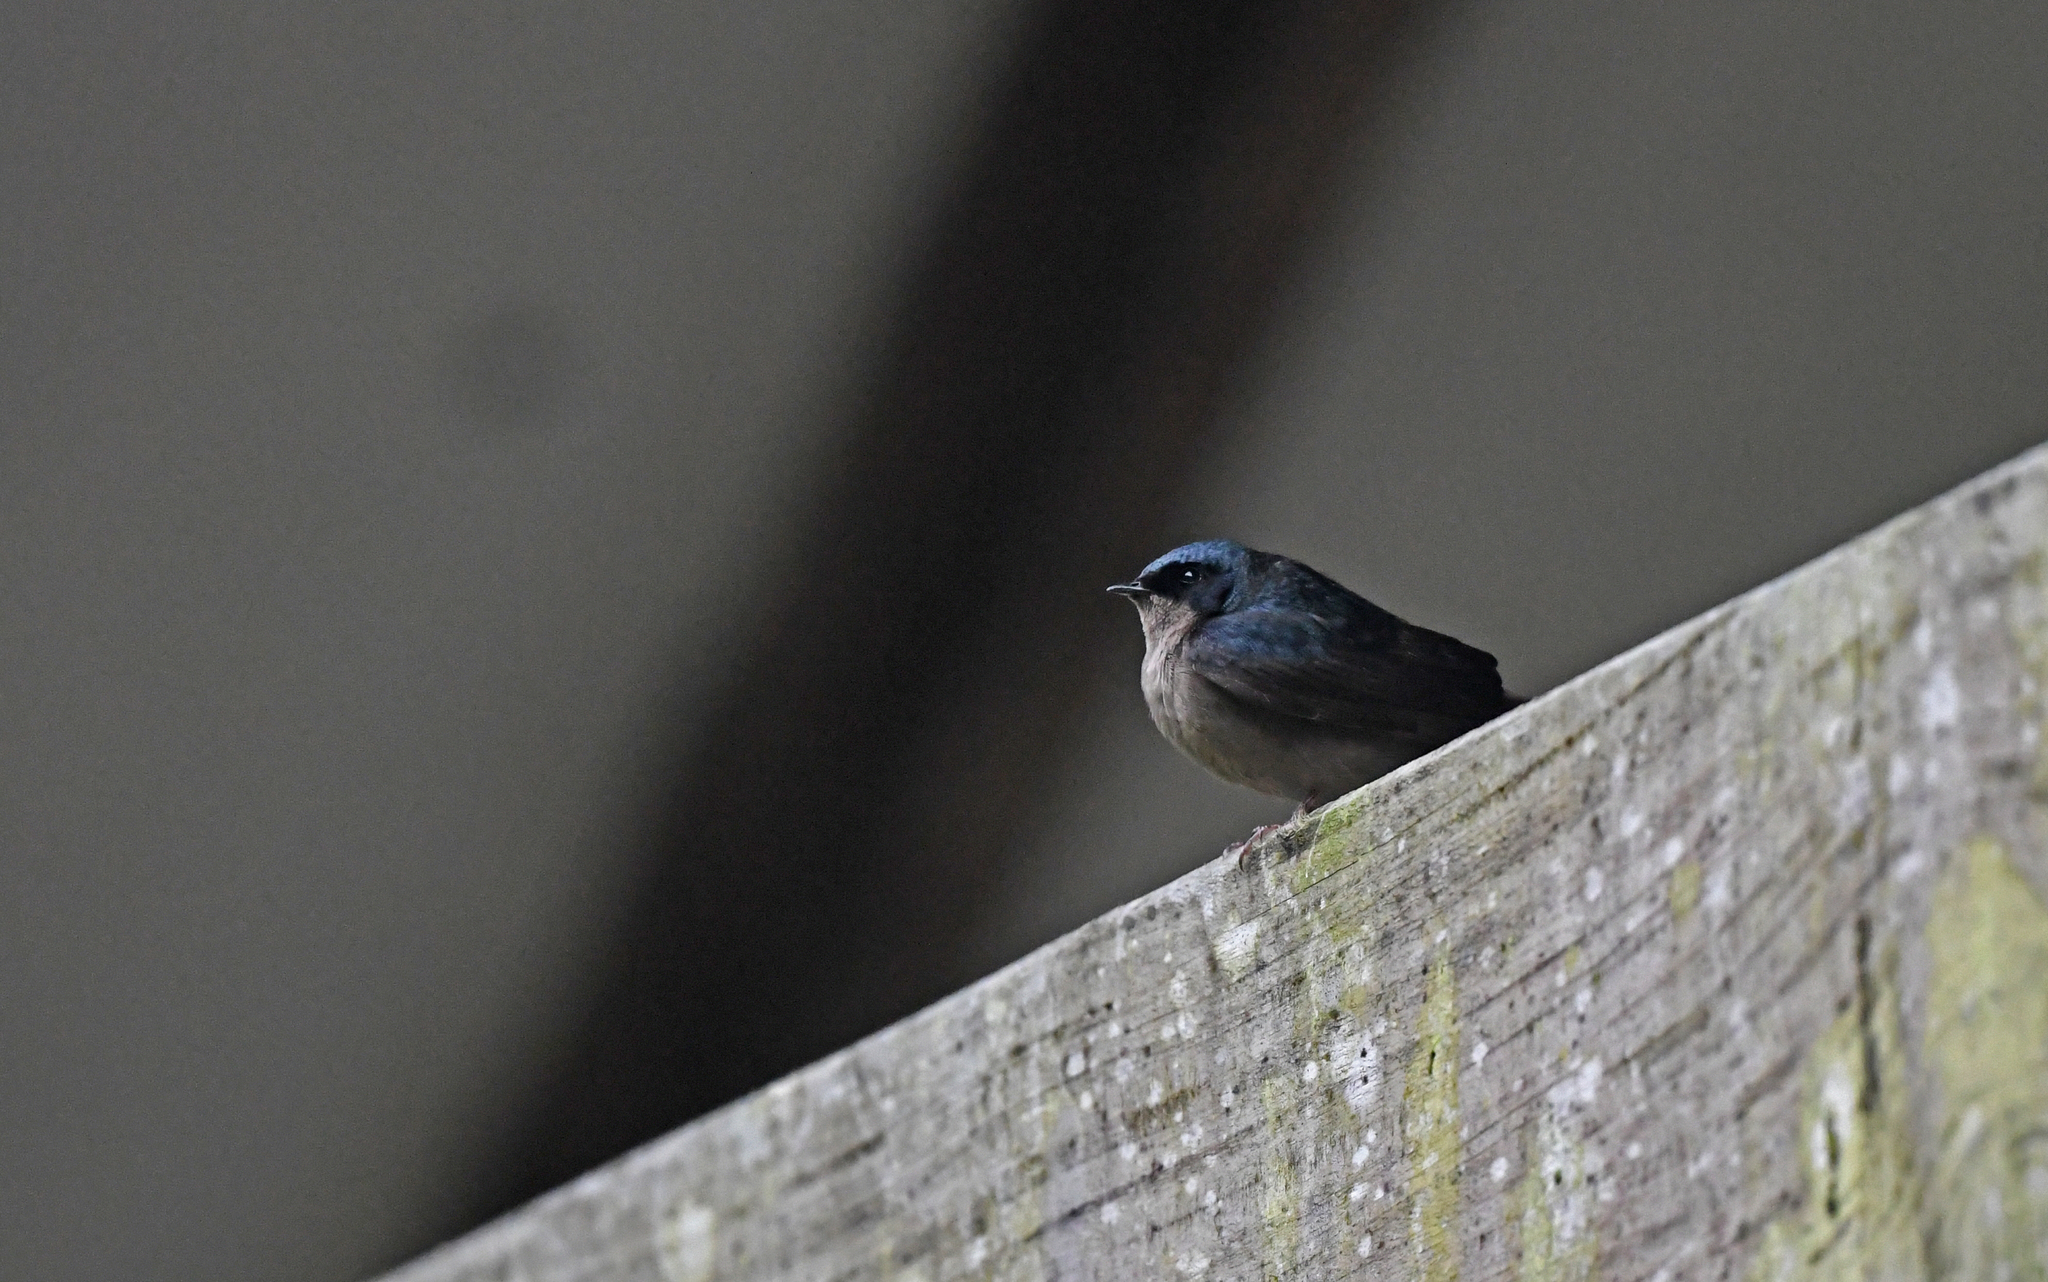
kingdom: Animalia
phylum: Chordata
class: Aves
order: Passeriformes
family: Hirundinidae
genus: Notiochelidon
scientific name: Notiochelidon murina
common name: Brown-bellied swallow
